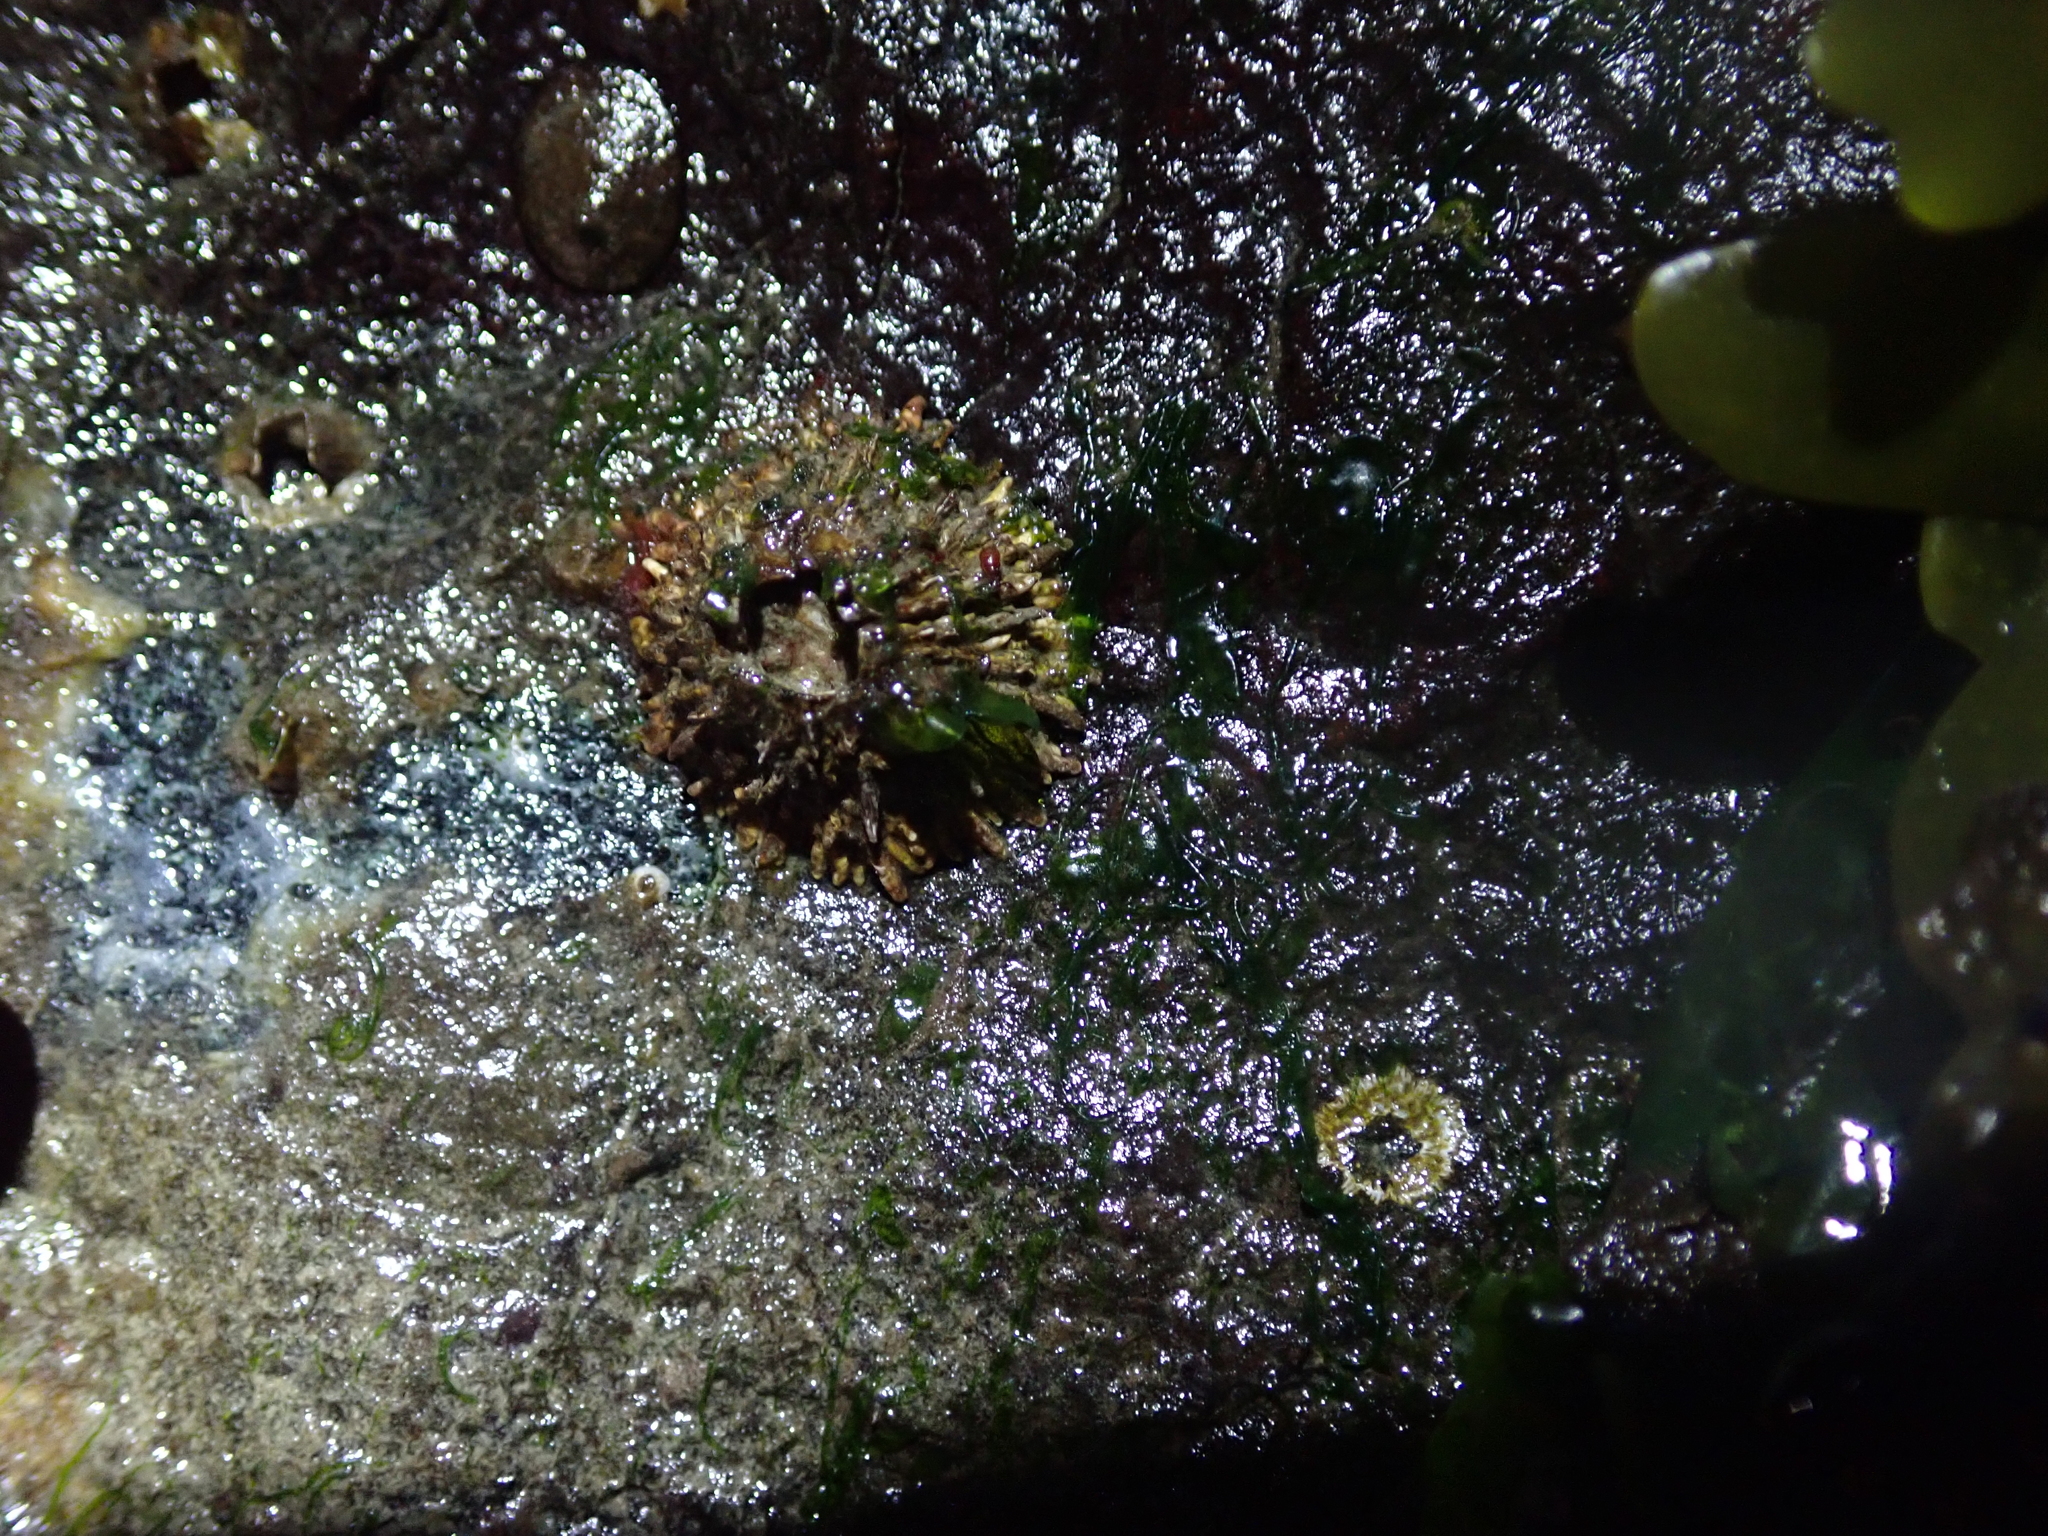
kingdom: Animalia
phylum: Arthropoda
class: Maxillopoda
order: Sessilia
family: Archaeobalanidae
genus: Semibalanus
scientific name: Semibalanus cariosus
